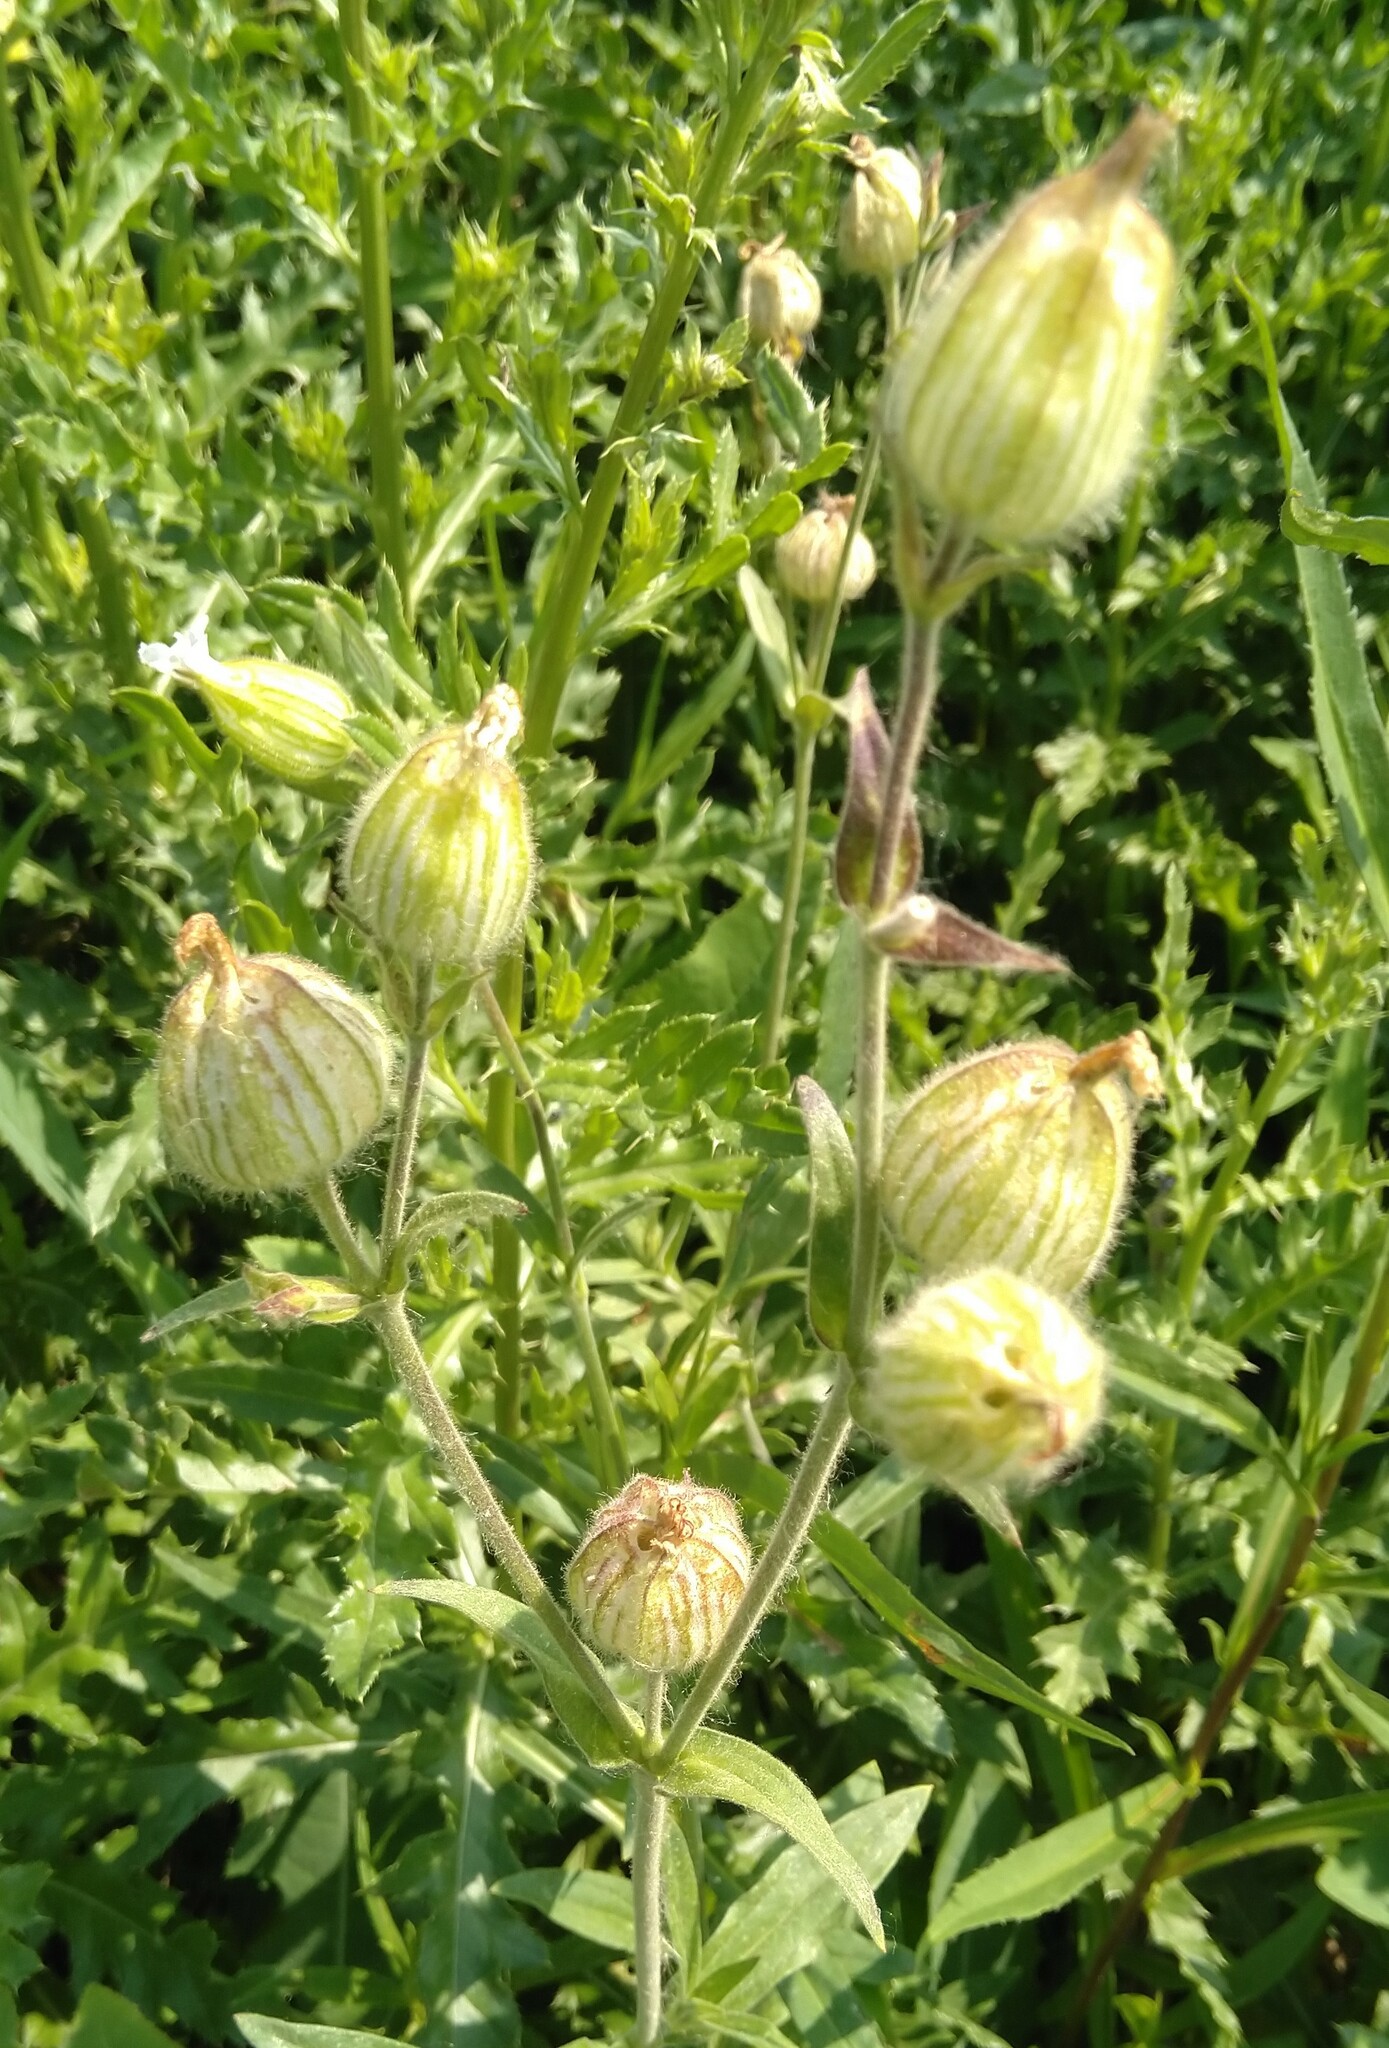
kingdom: Plantae
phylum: Tracheophyta
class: Magnoliopsida
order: Caryophyllales
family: Caryophyllaceae
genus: Silene
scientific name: Silene latifolia
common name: White campion
